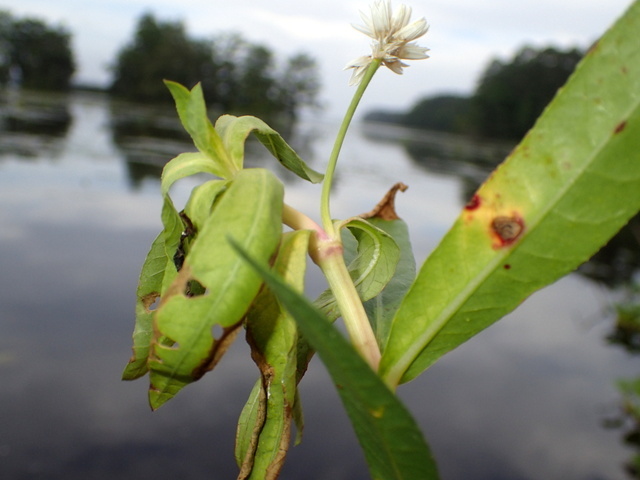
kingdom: Animalia
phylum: Arthropoda
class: Insecta
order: Lepidoptera
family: Pyralidae
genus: Macrorrhinia
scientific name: Macrorrhinia endonephele
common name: Alligator weed stemborer moth
